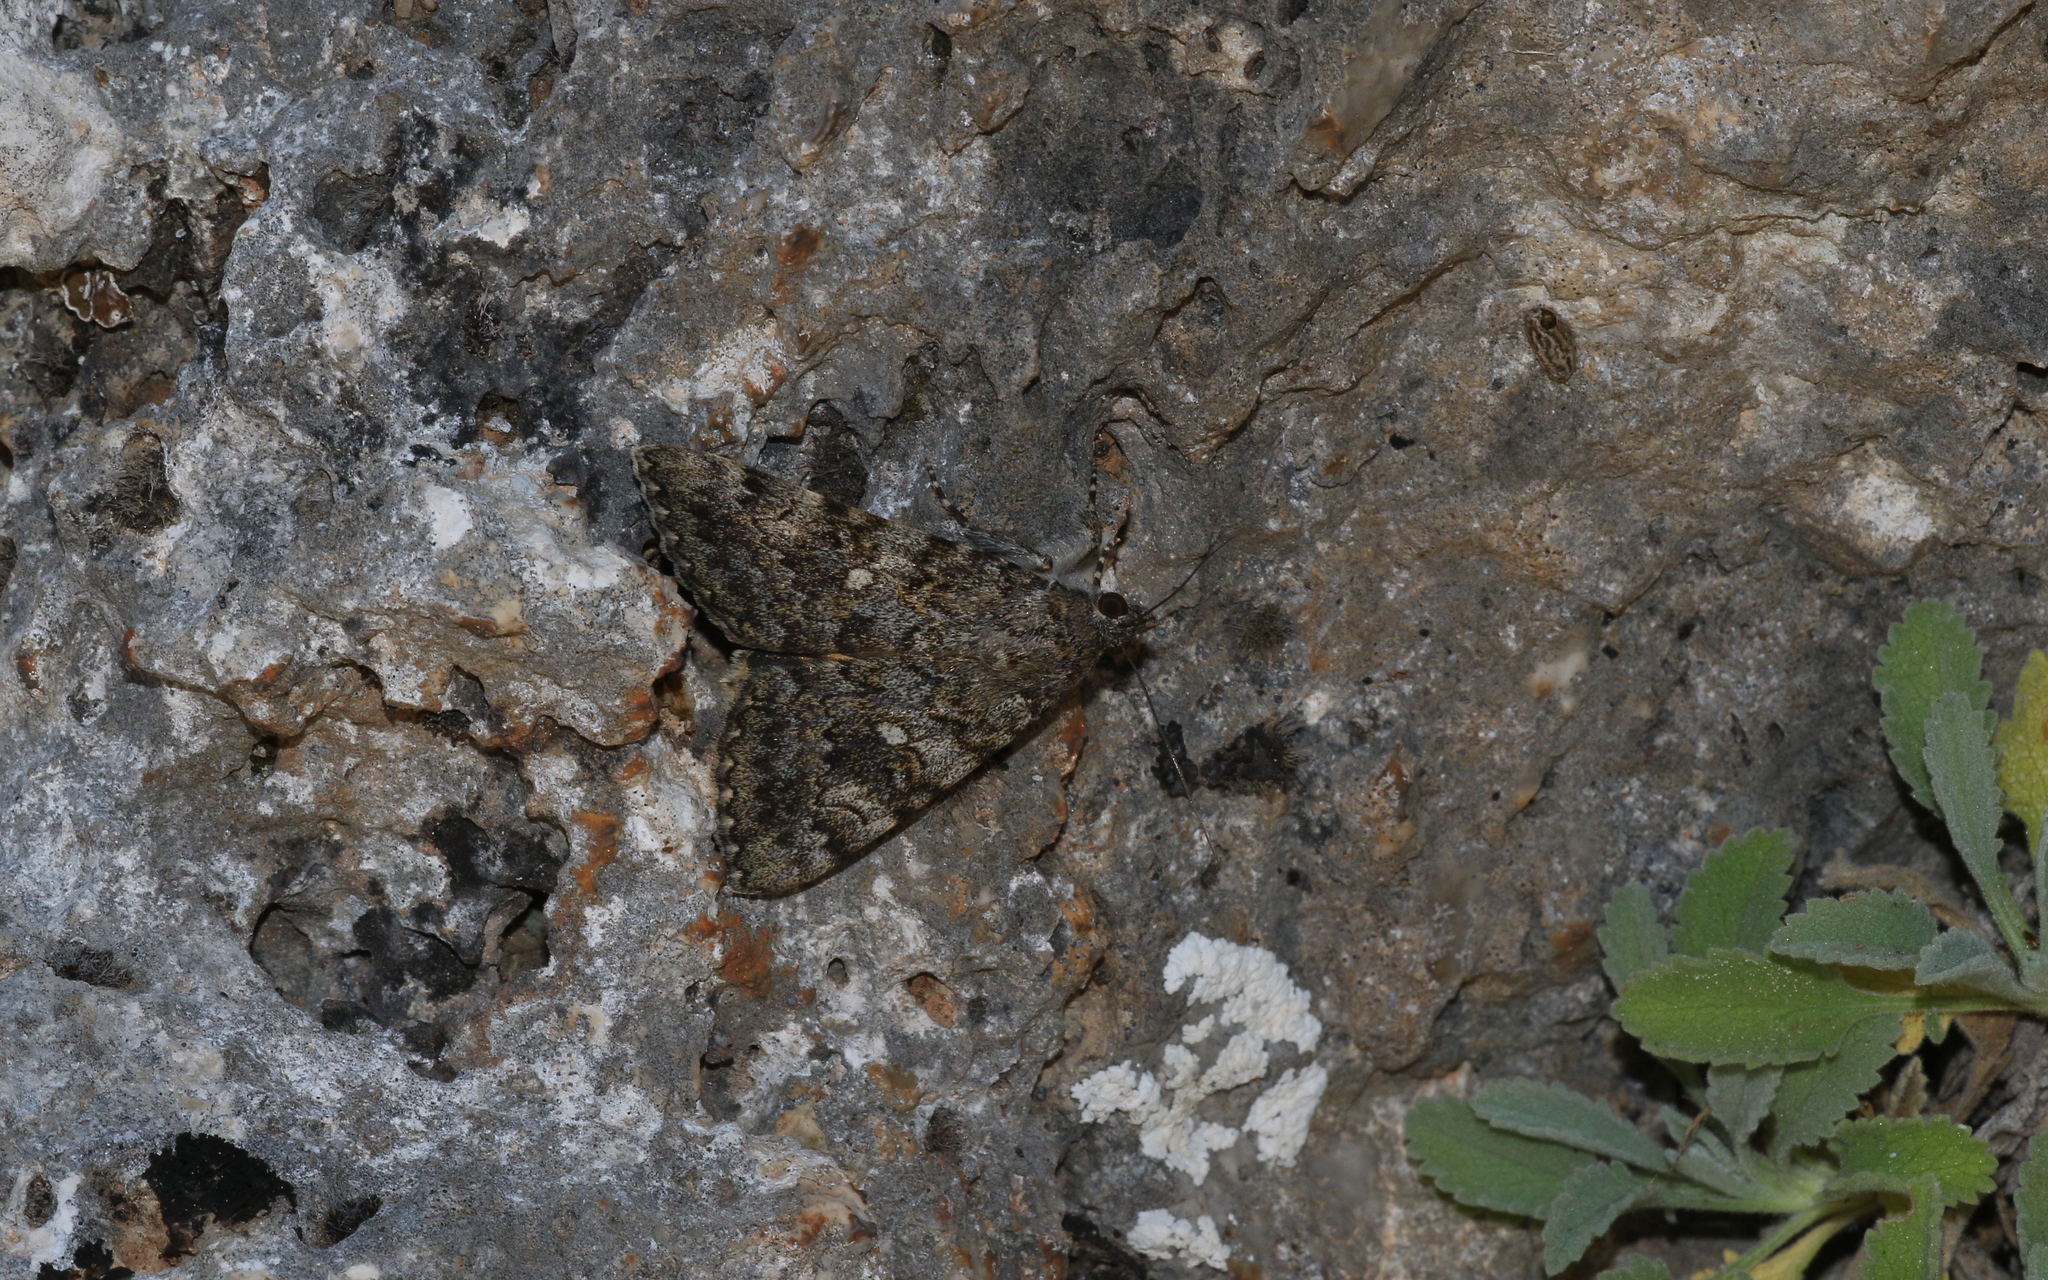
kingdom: Animalia
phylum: Arthropoda
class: Insecta
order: Lepidoptera
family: Erebidae
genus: Catocala
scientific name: Catocala nymphaea
